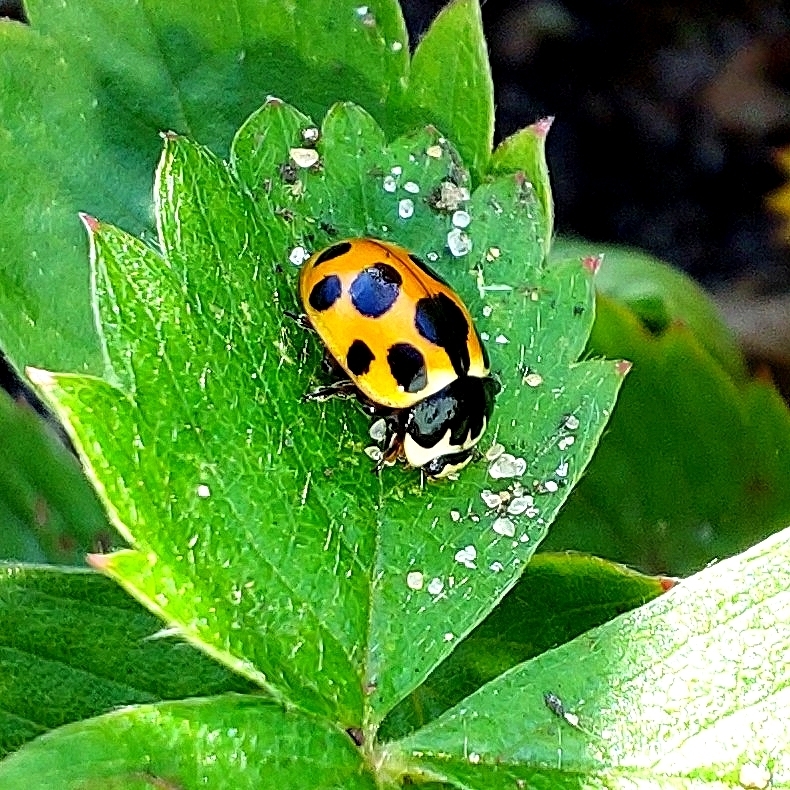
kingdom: Animalia
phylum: Arthropoda
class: Insecta
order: Coleoptera
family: Coccinellidae
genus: Ceratomegilla
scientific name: Ceratomegilla notata
